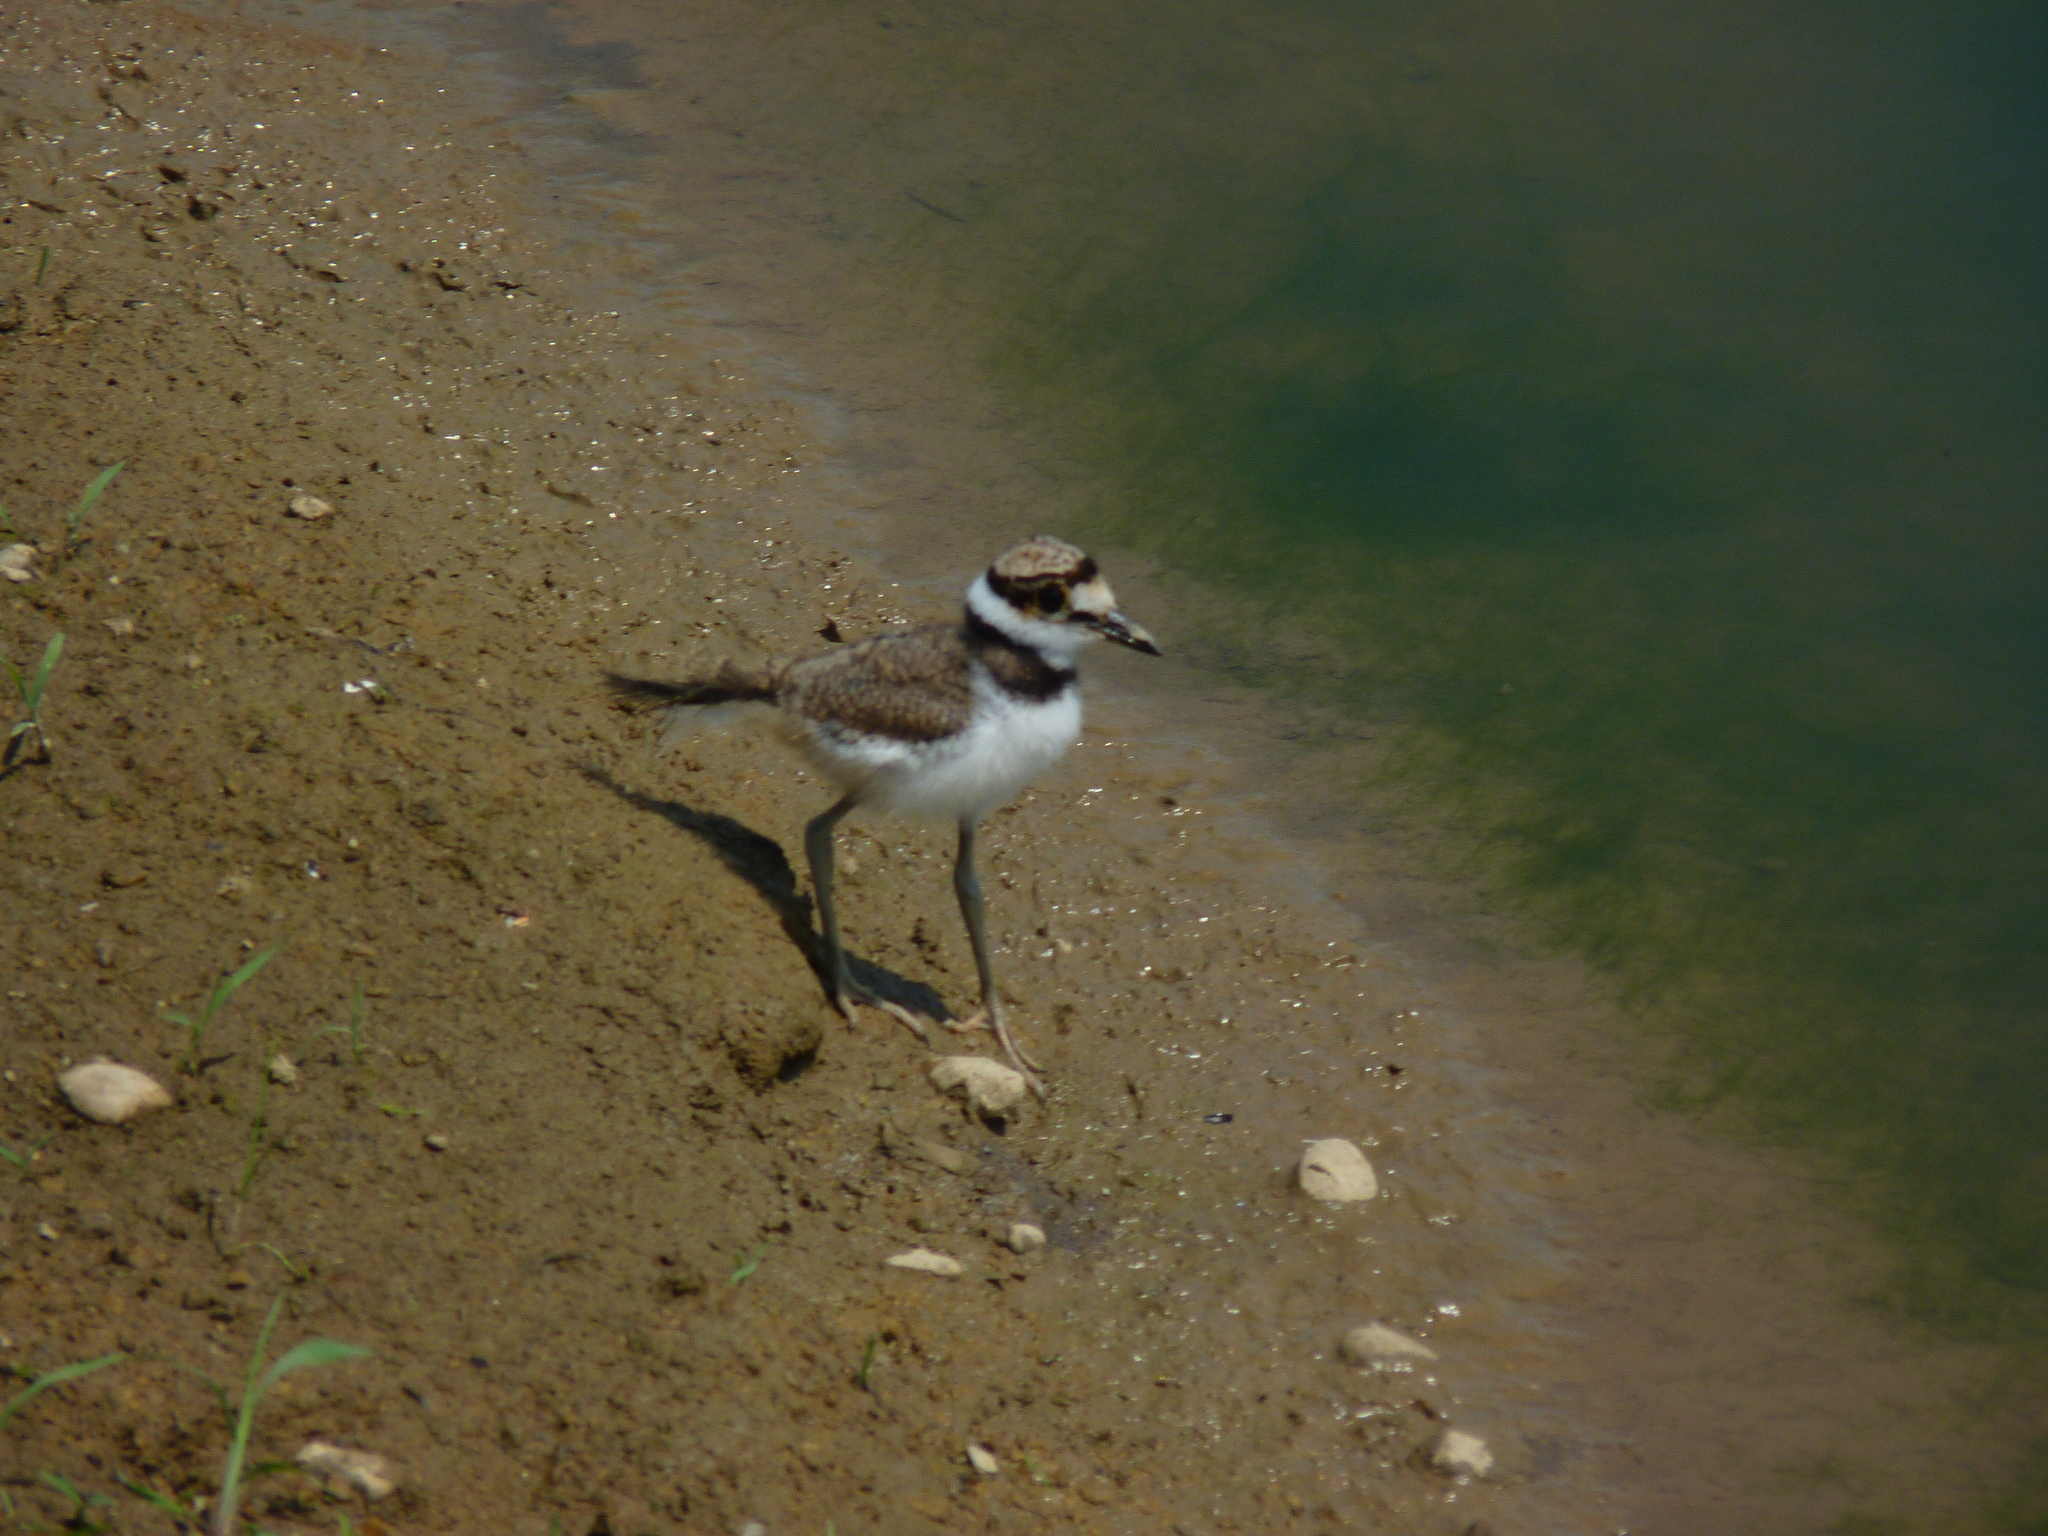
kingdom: Animalia
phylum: Chordata
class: Aves
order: Charadriiformes
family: Charadriidae
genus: Charadrius
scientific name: Charadrius vociferus
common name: Killdeer
